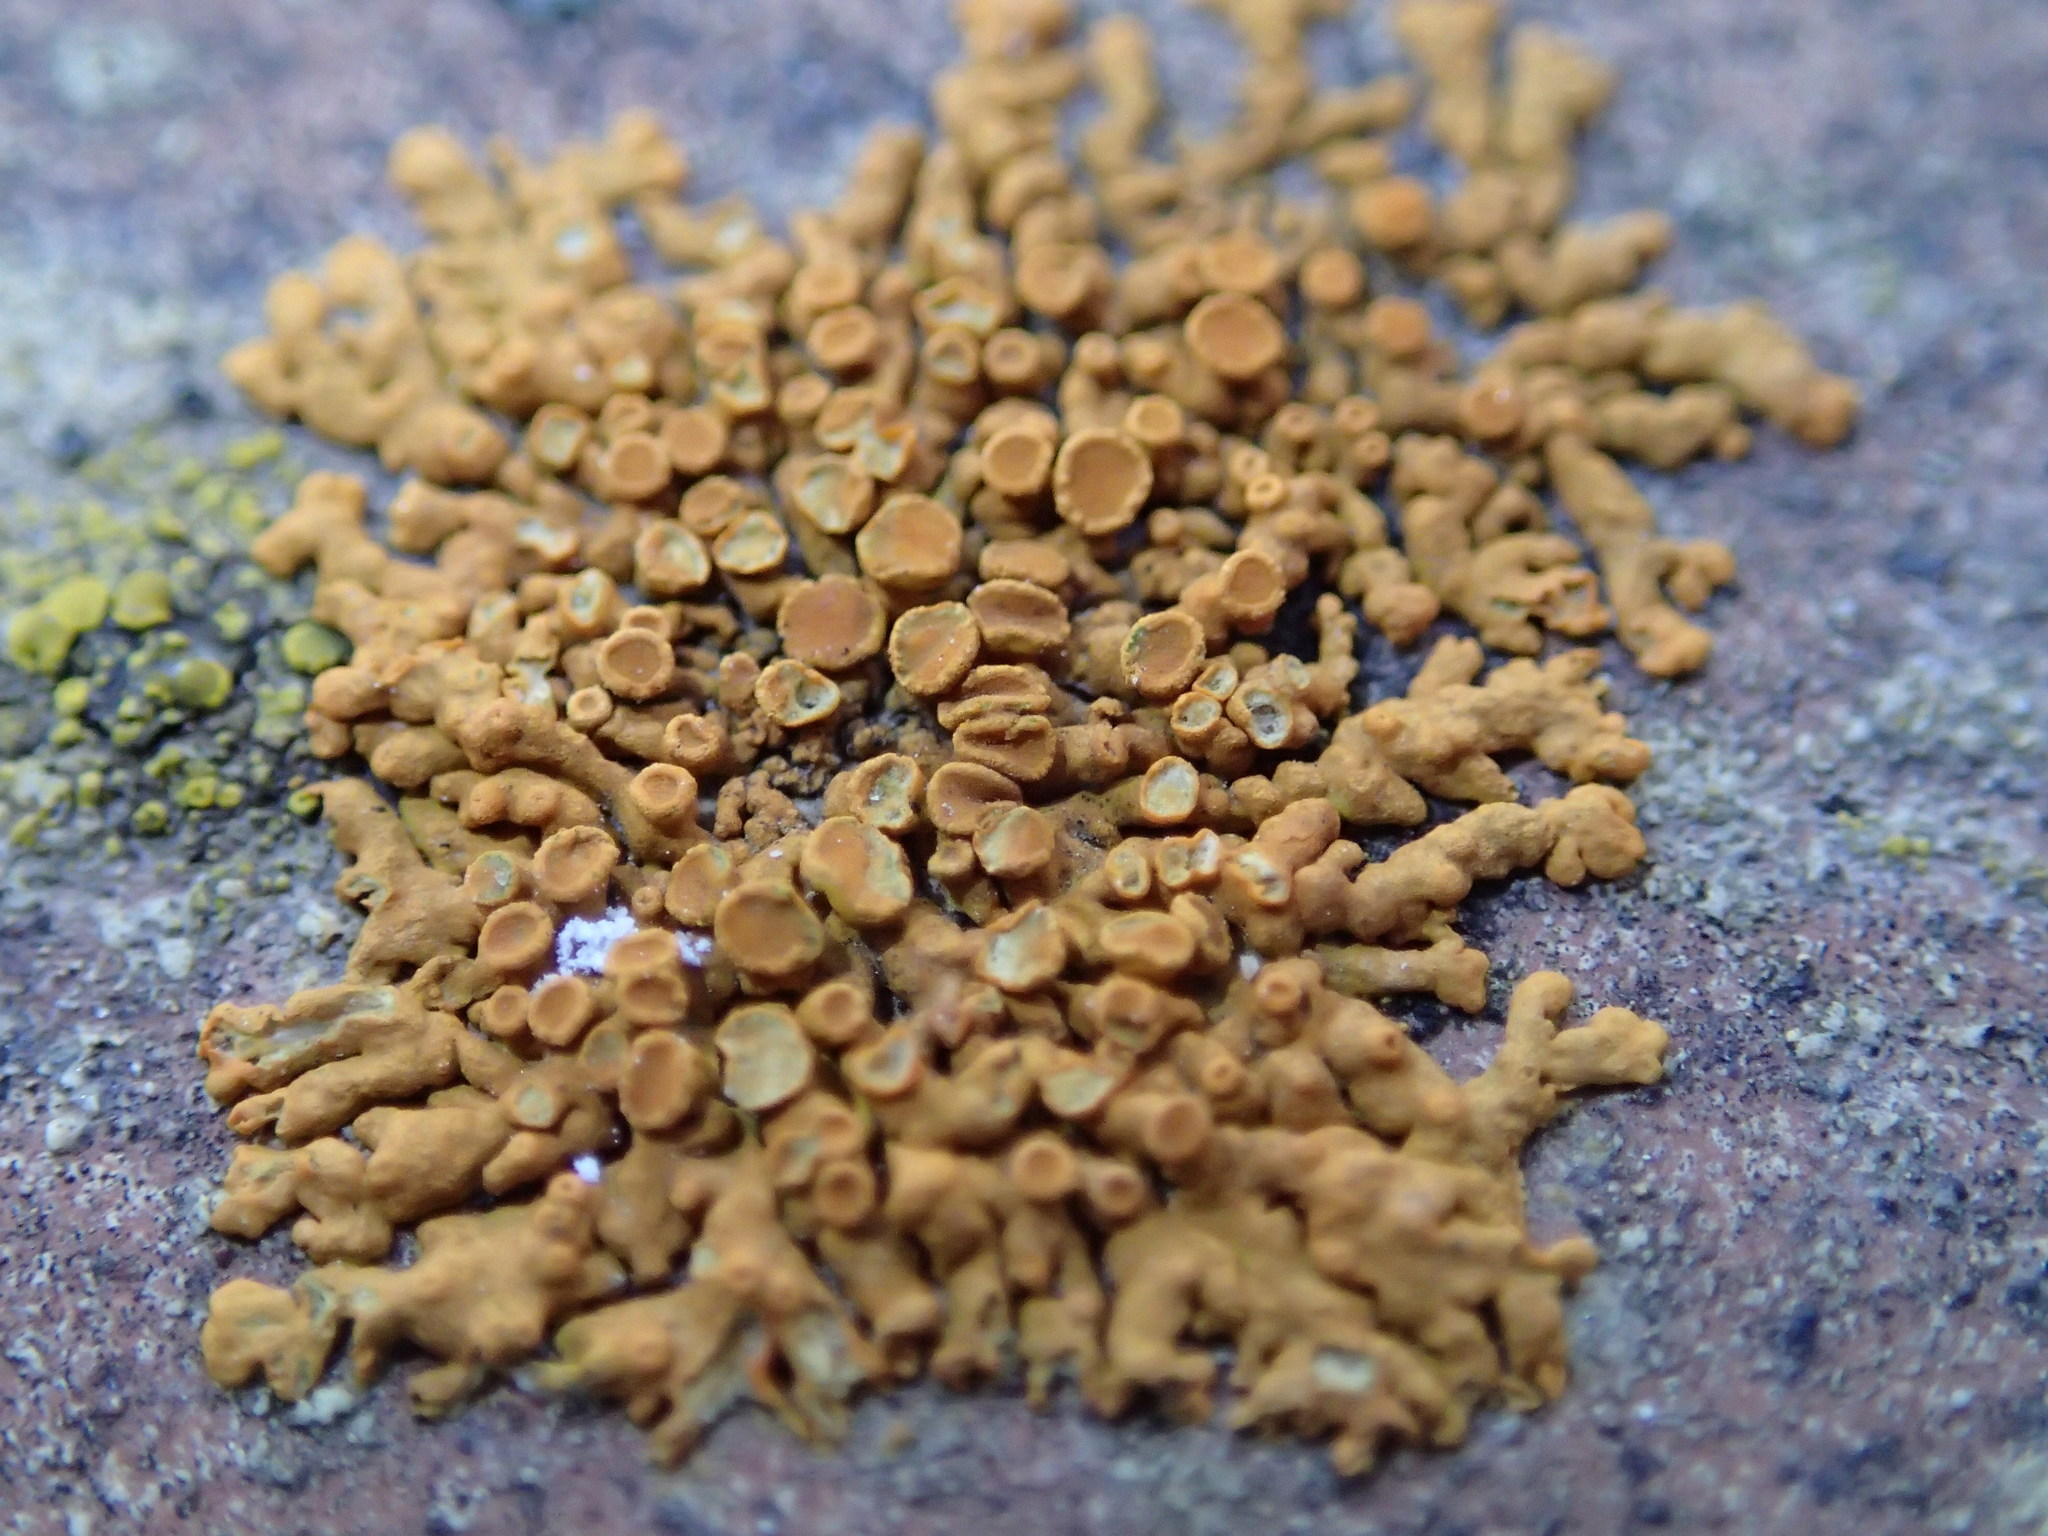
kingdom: Fungi
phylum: Ascomycota
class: Lecanoromycetes
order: Teloschistales
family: Teloschistaceae
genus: Xanthoria
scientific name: Xanthoria elegans
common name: Elegant sunburst lichen
